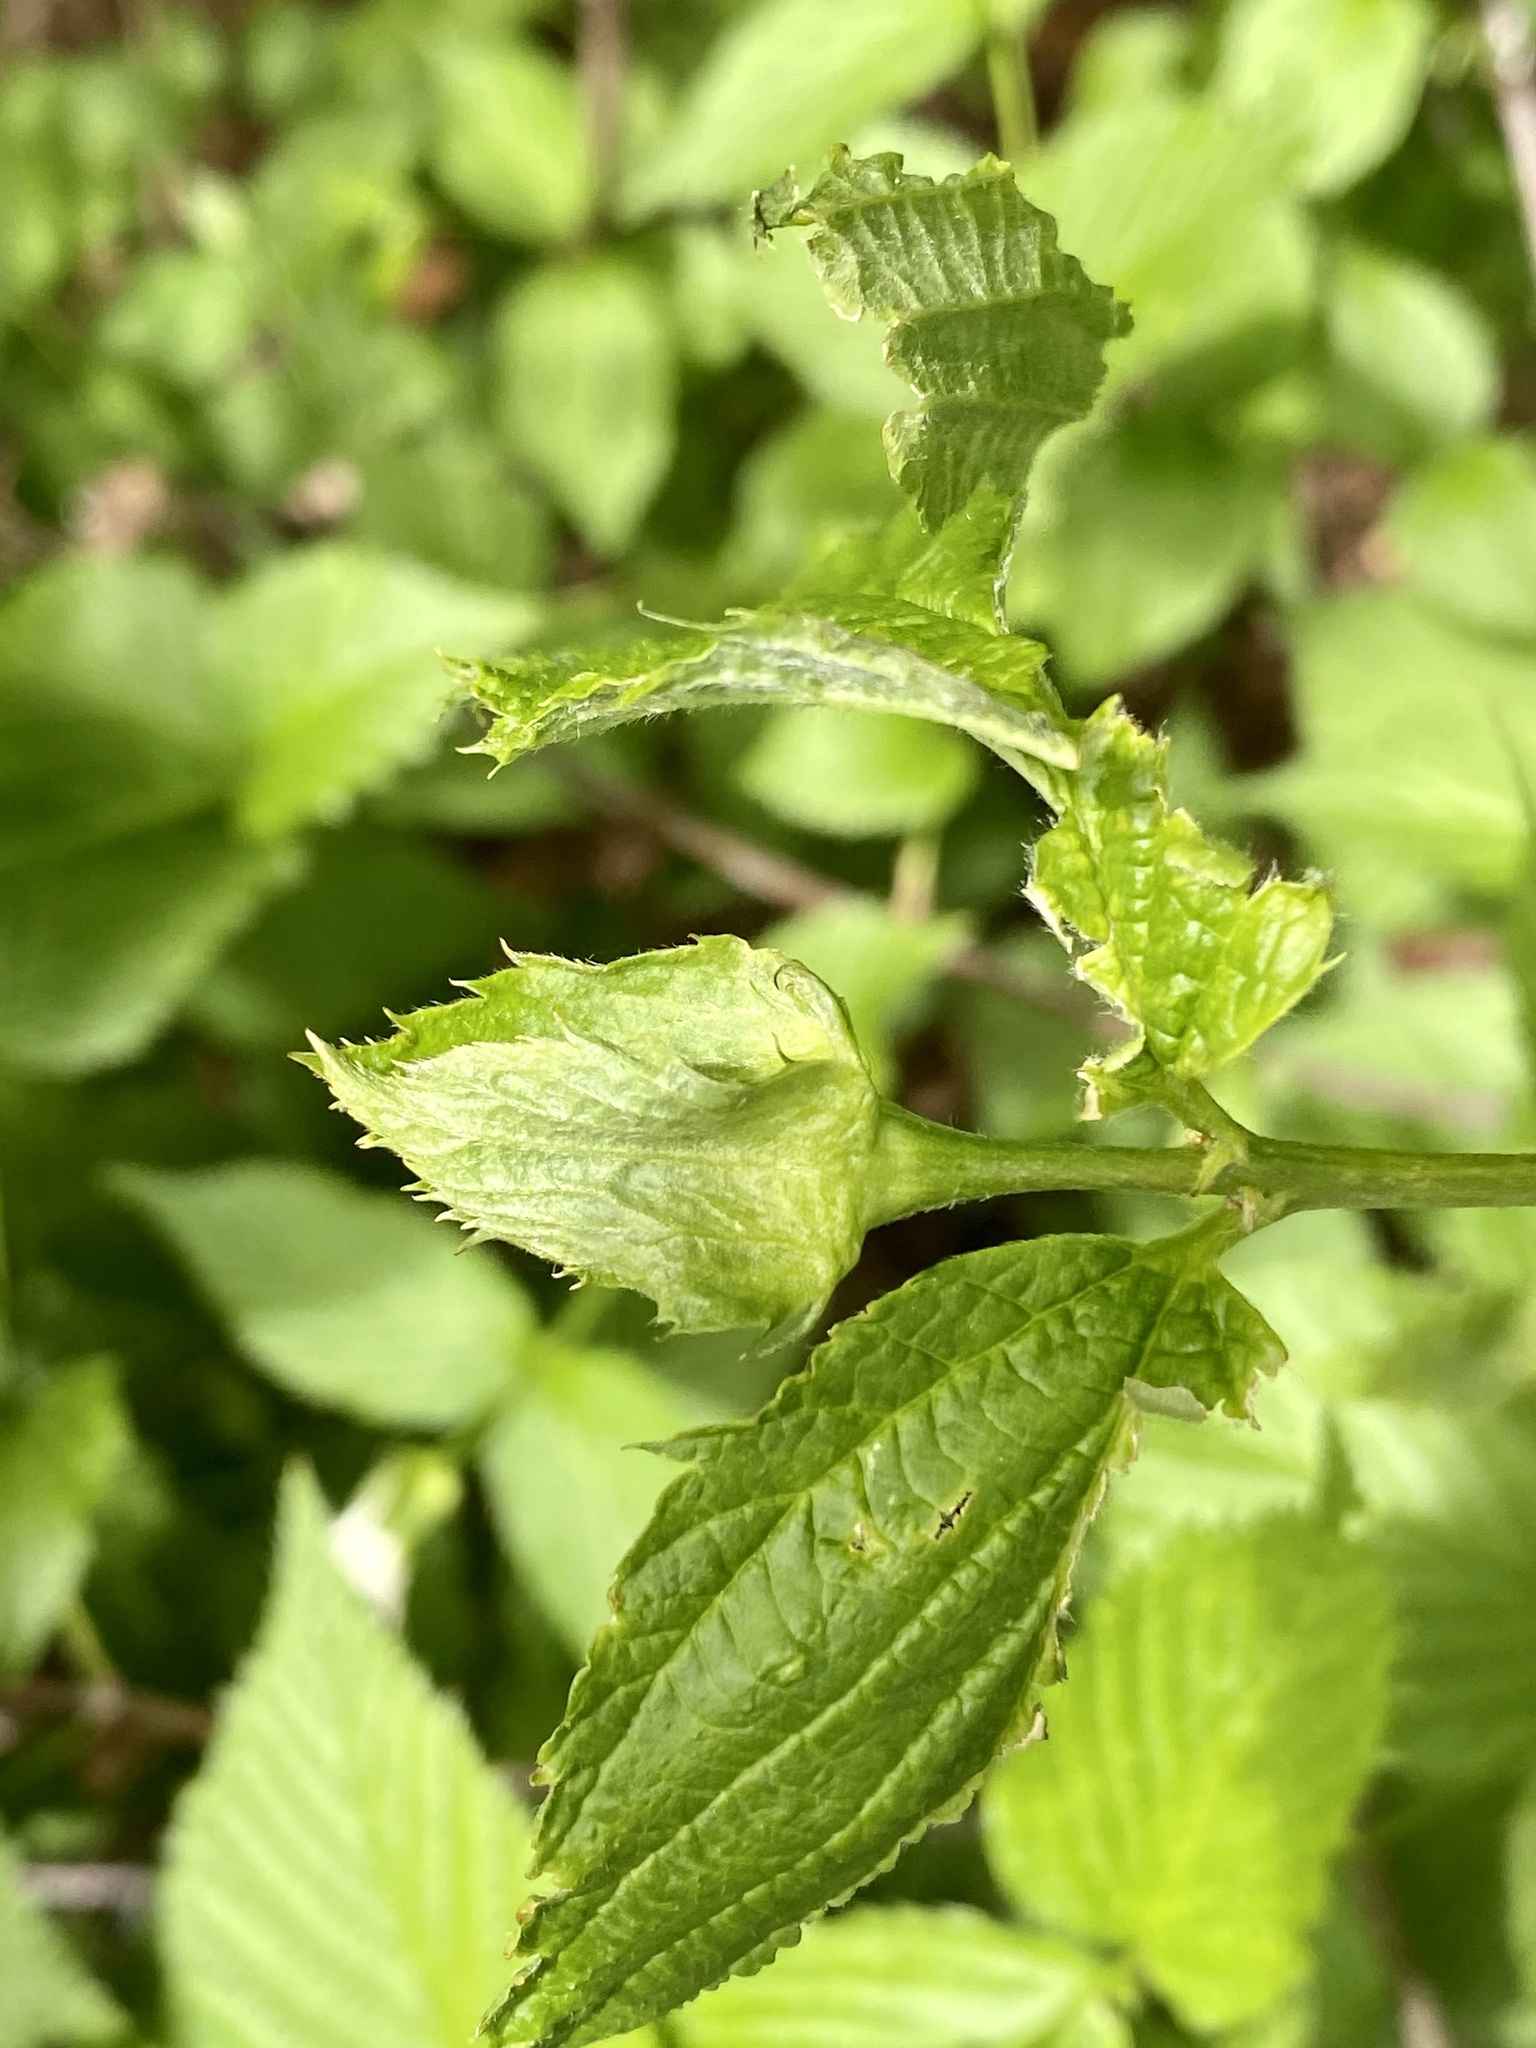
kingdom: Plantae
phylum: Tracheophyta
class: Magnoliopsida
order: Rosales
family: Rosaceae
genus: Rhodotypos
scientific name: Rhodotypos scandens
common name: Jetbead
